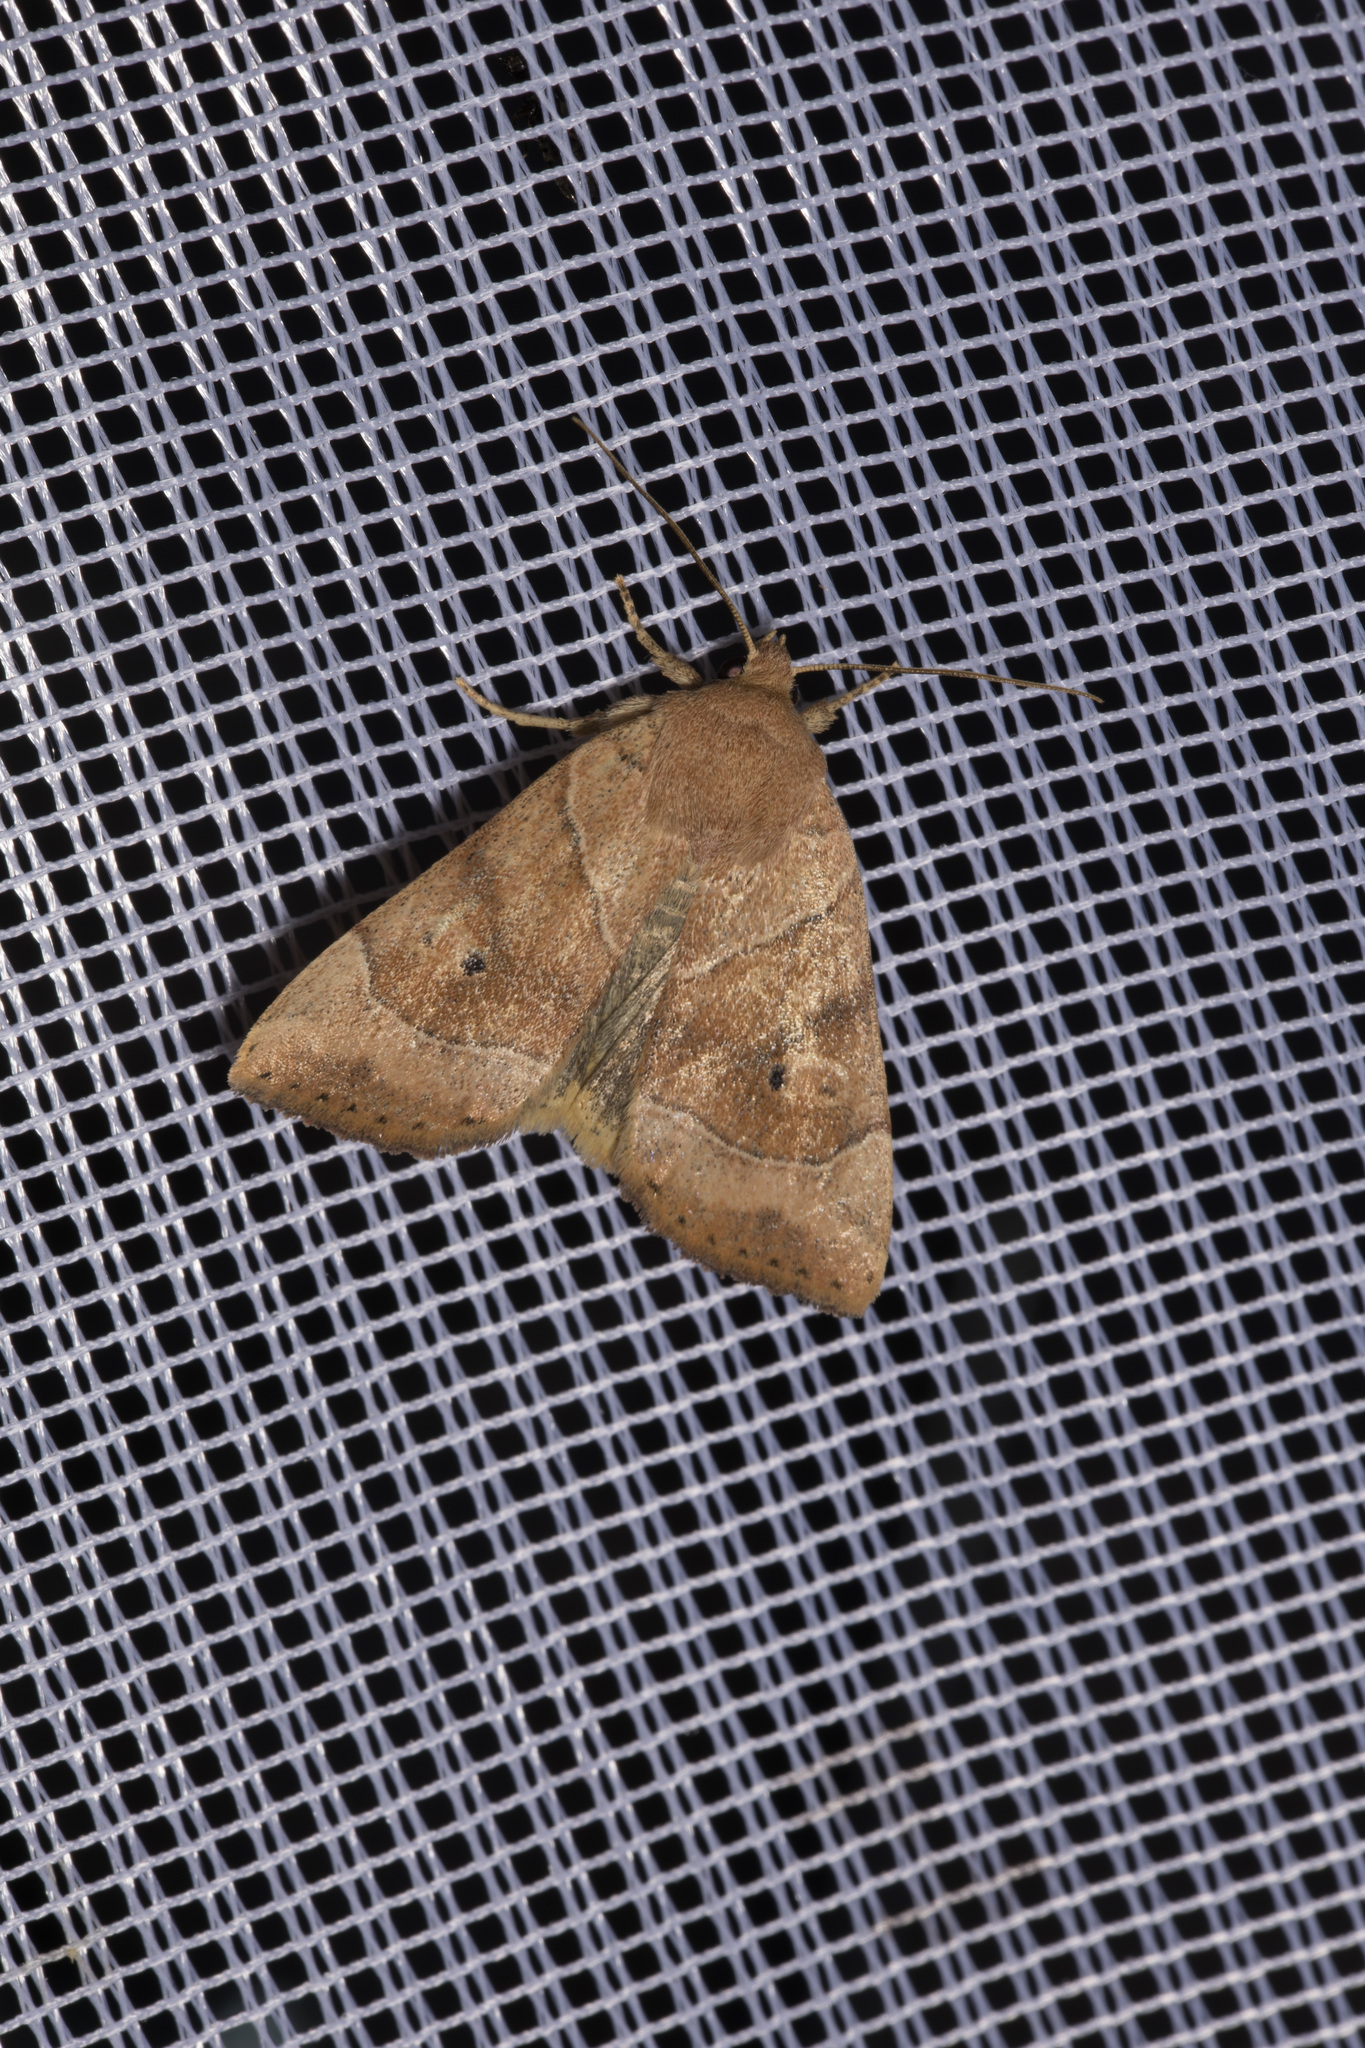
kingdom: Animalia
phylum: Arthropoda
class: Insecta
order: Lepidoptera
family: Noctuidae
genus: Cosmia
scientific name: Cosmia trapezina
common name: Dun-bar
